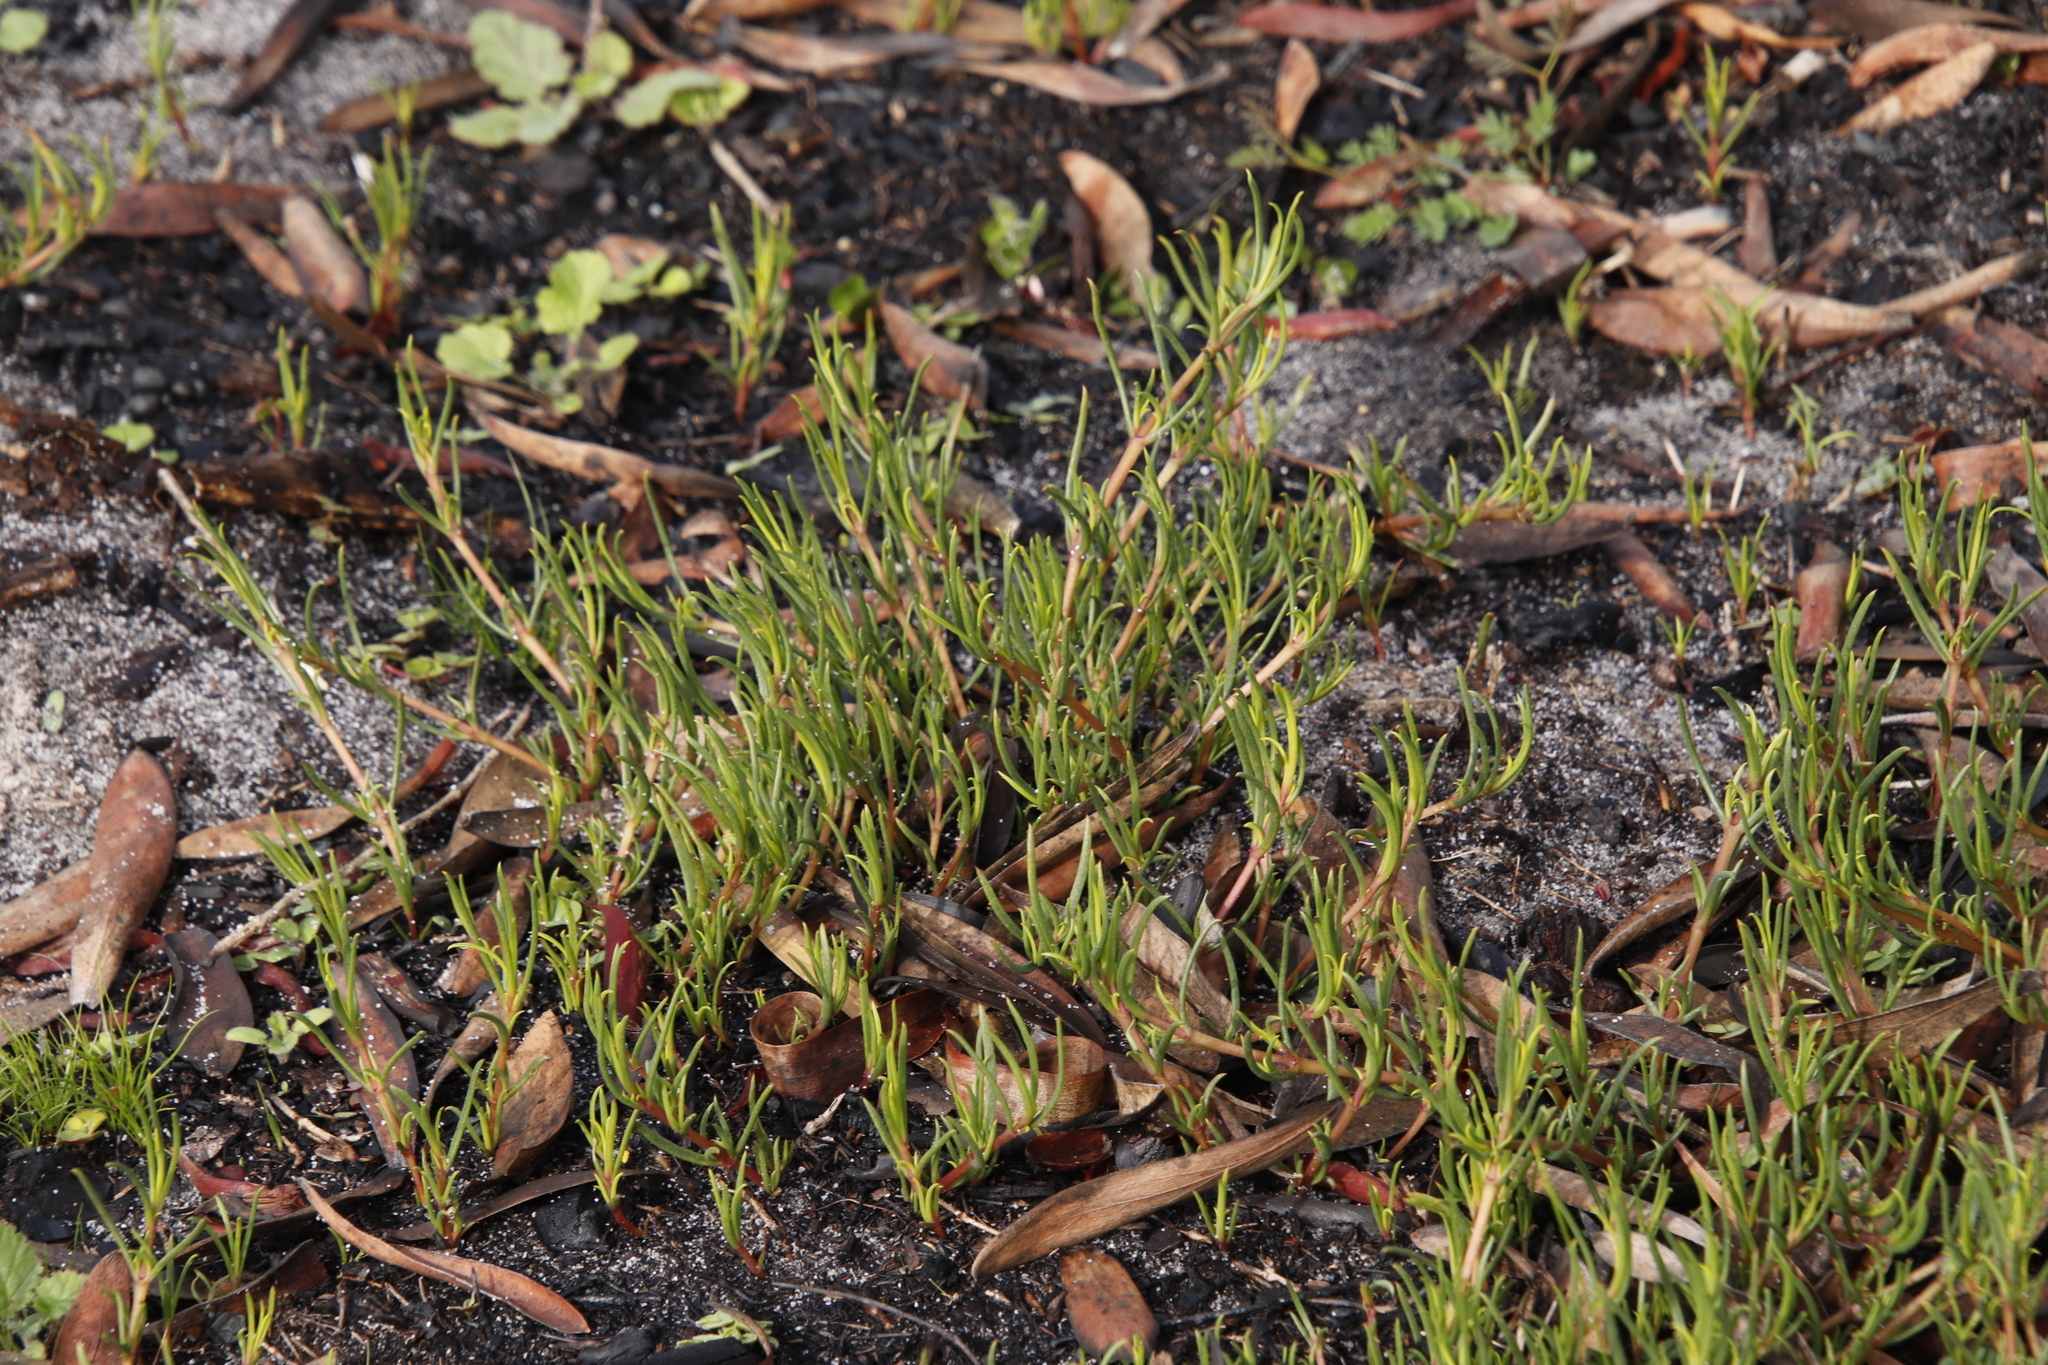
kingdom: Plantae
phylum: Tracheophyta
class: Magnoliopsida
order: Caryophyllales
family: Aizoaceae
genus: Acrosanthes
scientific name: Acrosanthes teretifolia
